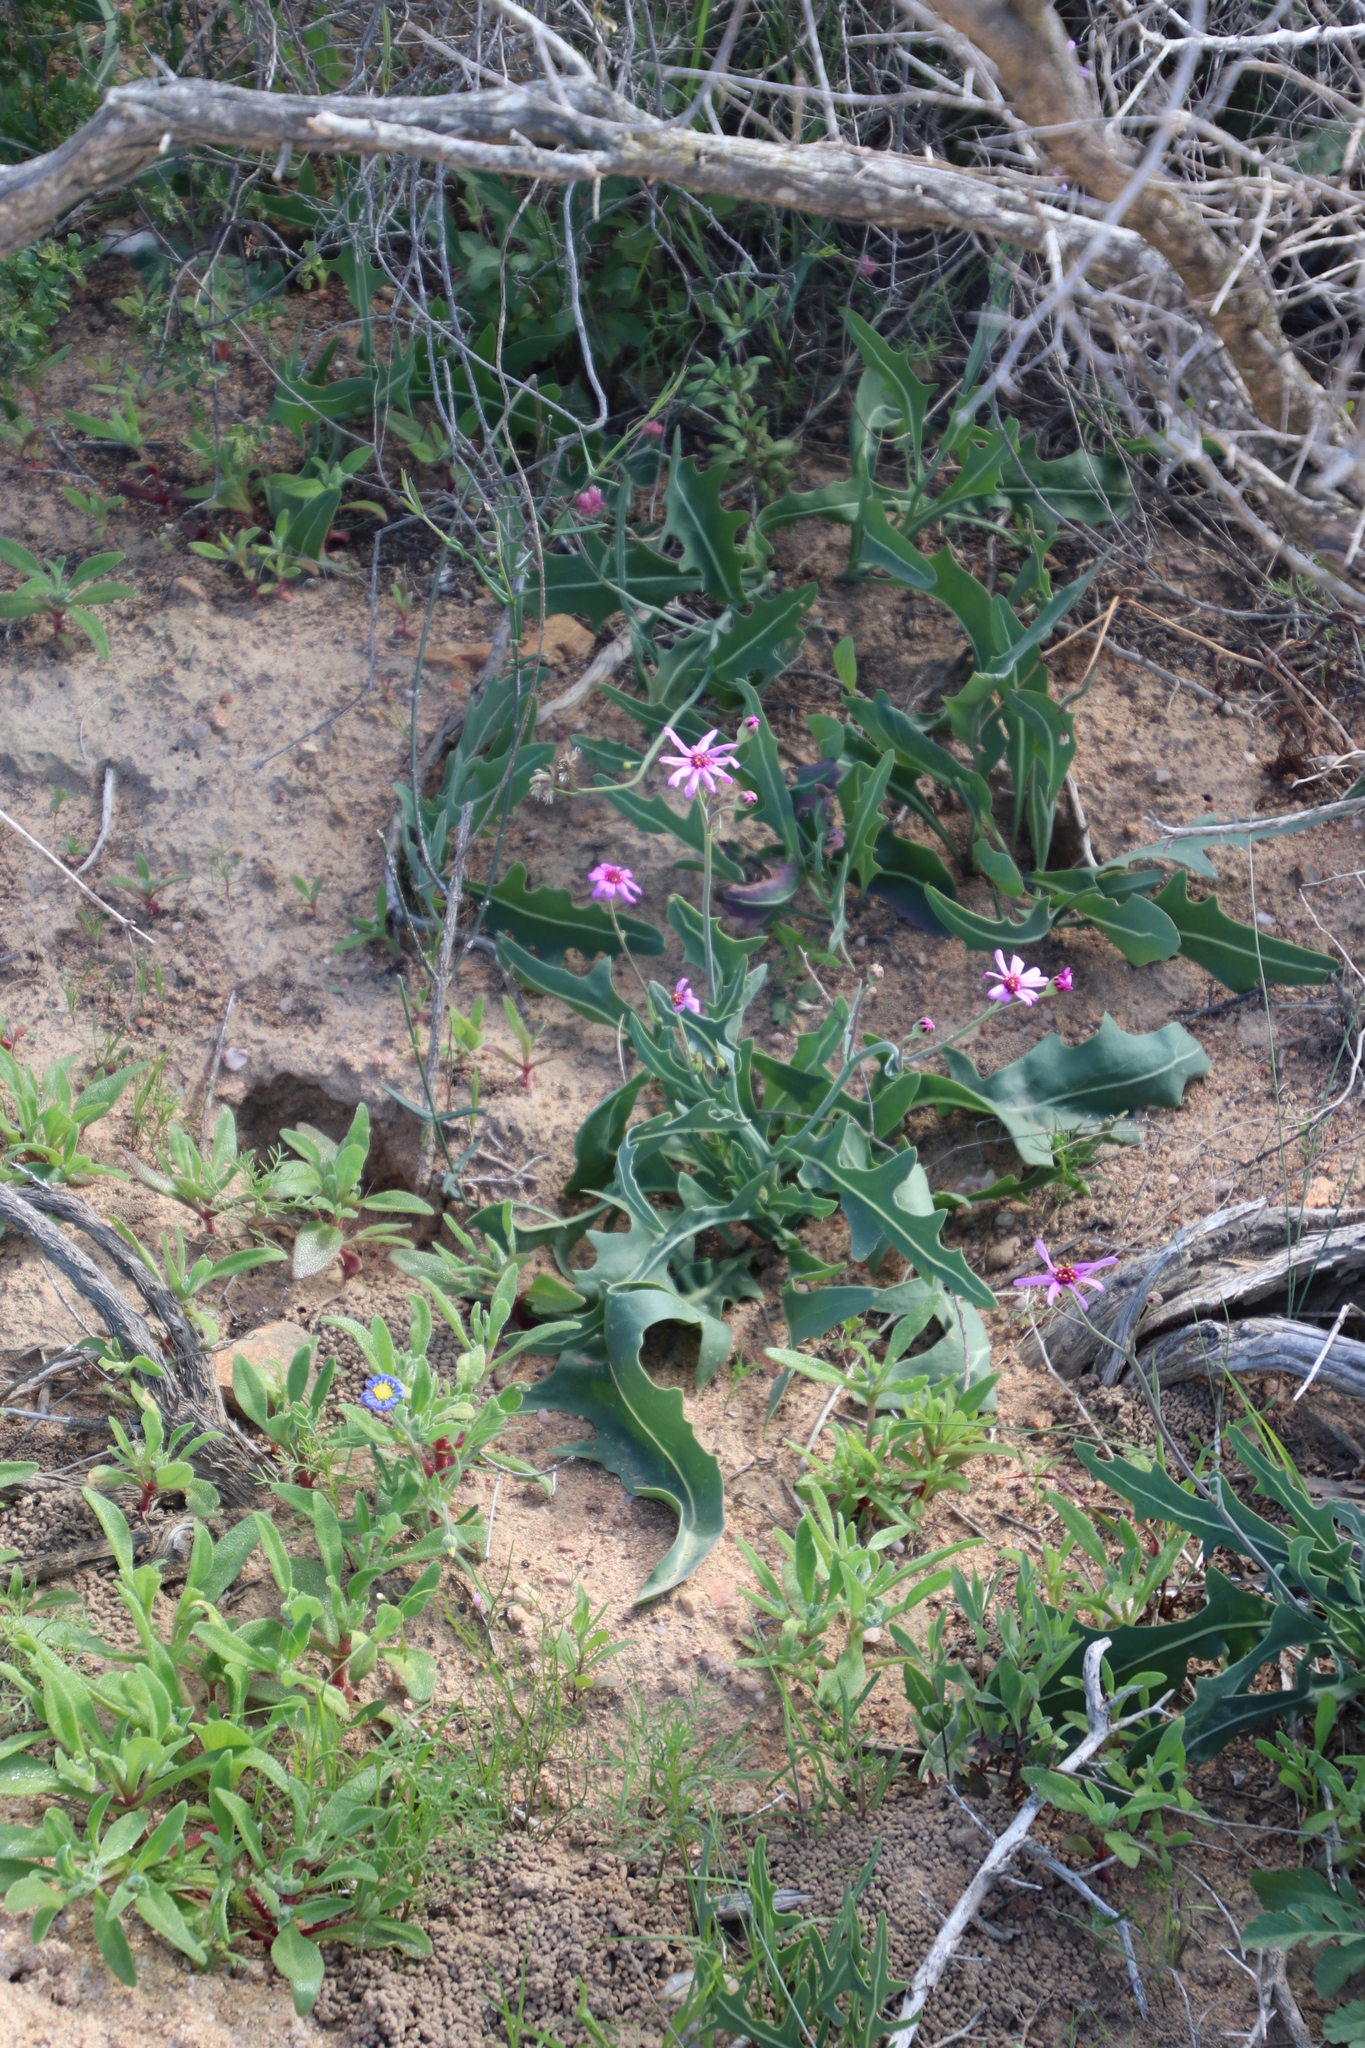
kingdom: Plantae
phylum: Tracheophyta
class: Magnoliopsida
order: Asterales
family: Asteraceae
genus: Othonna
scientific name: Othonna rosea
